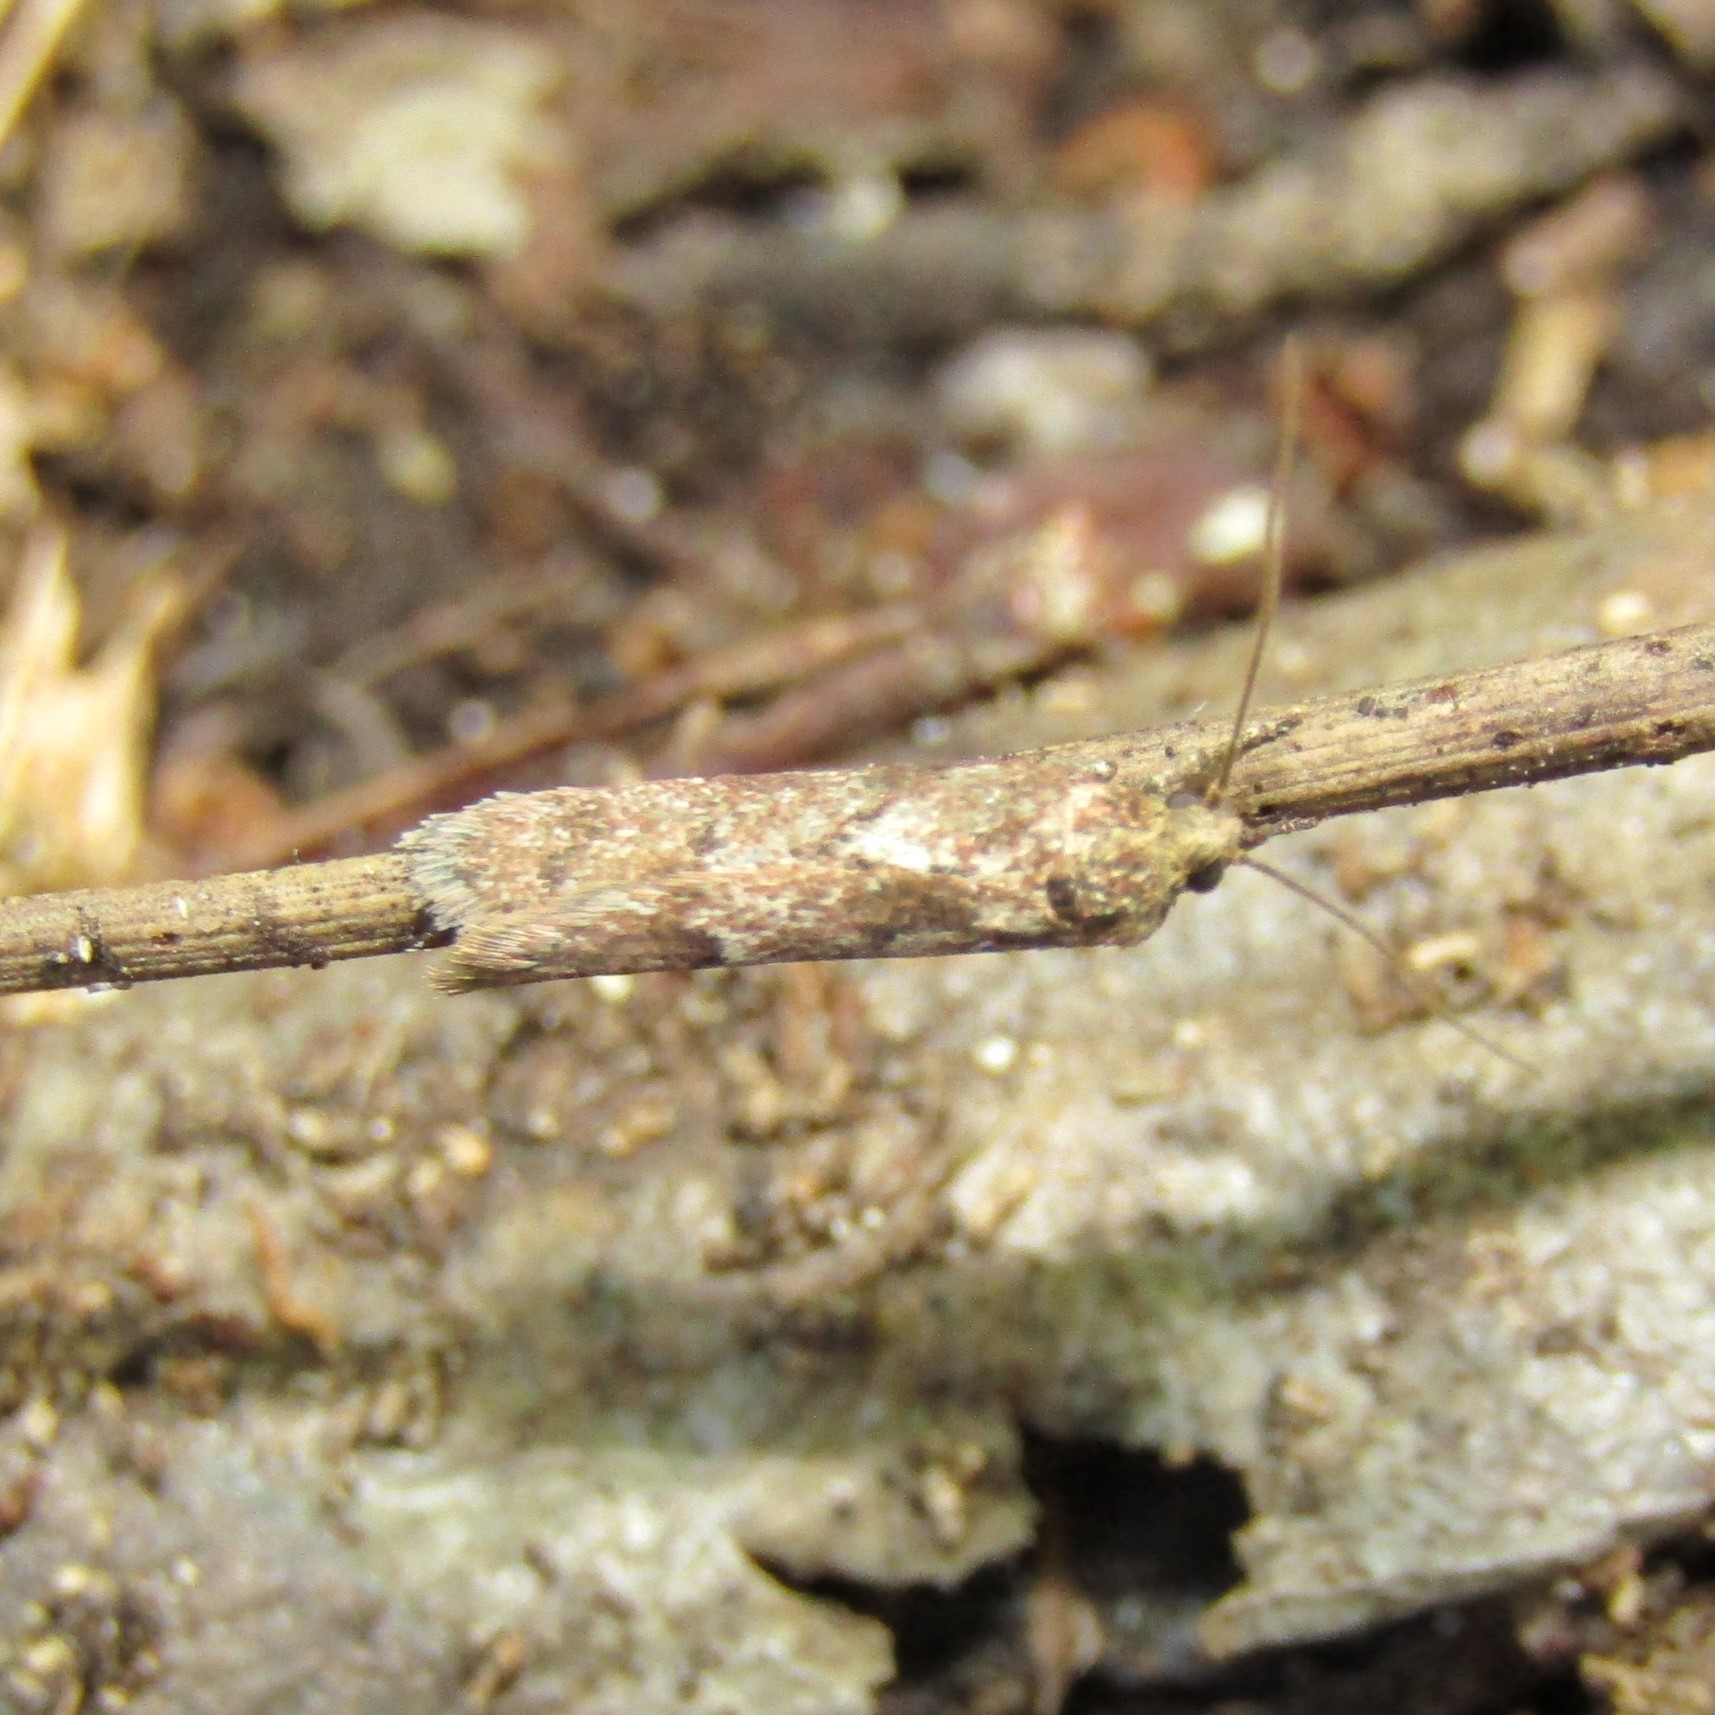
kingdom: Animalia
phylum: Arthropoda
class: Insecta
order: Lepidoptera
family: Oecophoridae
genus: Chersadaula
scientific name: Chersadaula ochrogastra
